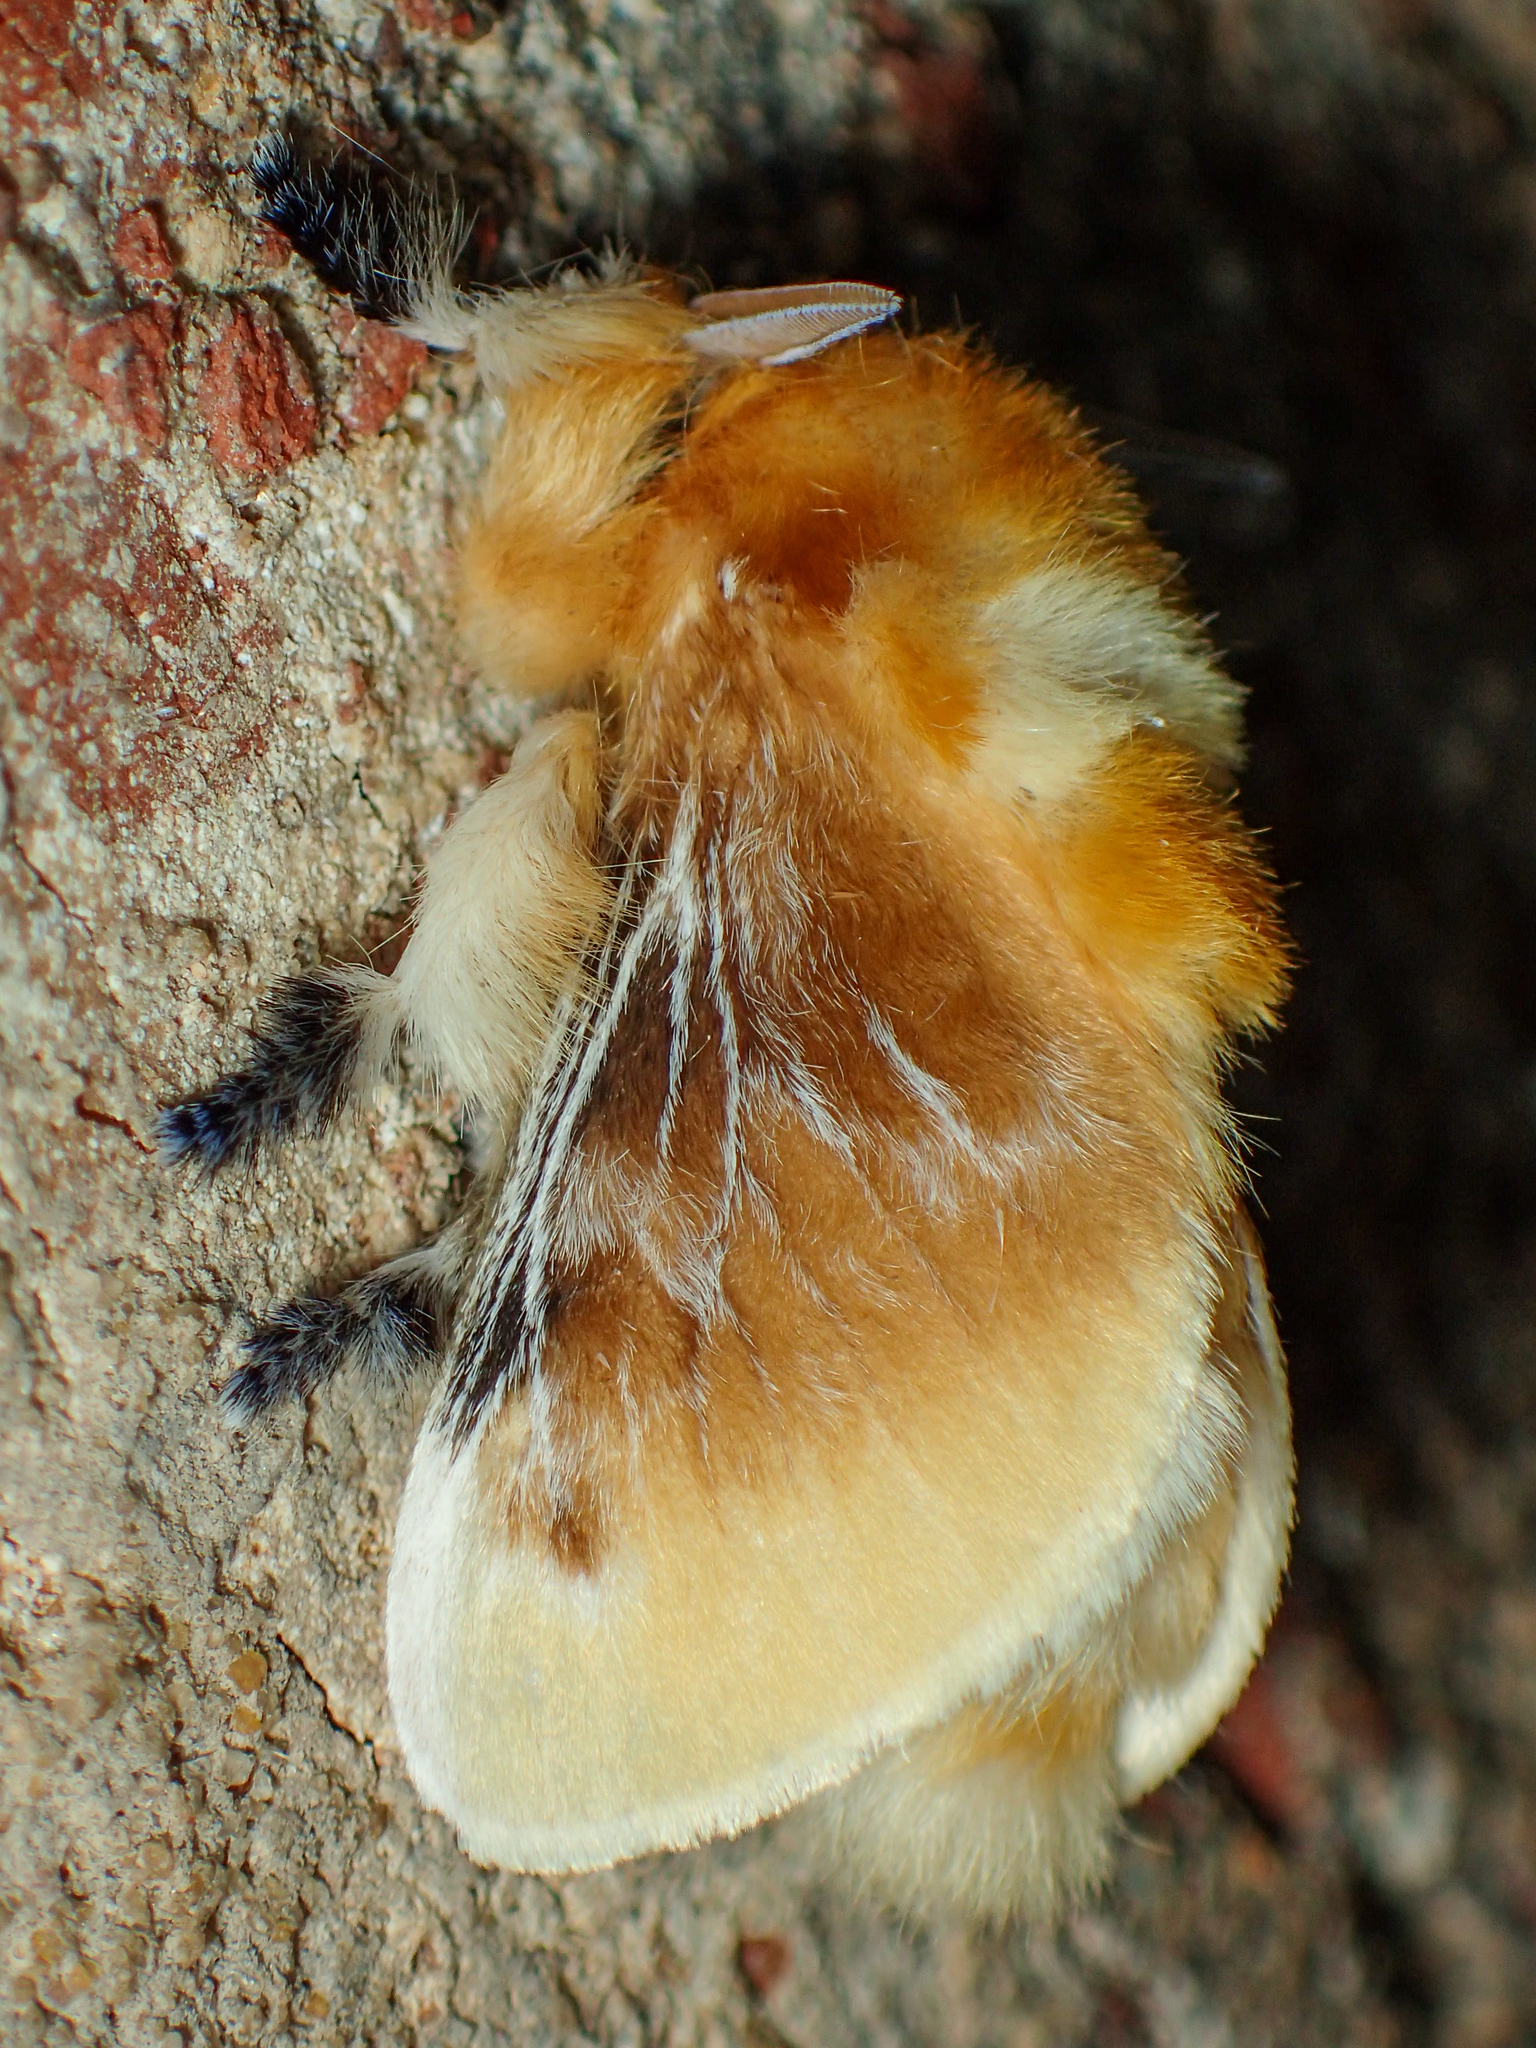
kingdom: Animalia
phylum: Arthropoda
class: Insecta
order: Lepidoptera
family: Megalopygidae
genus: Megalopyge
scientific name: Megalopyge opercularis
